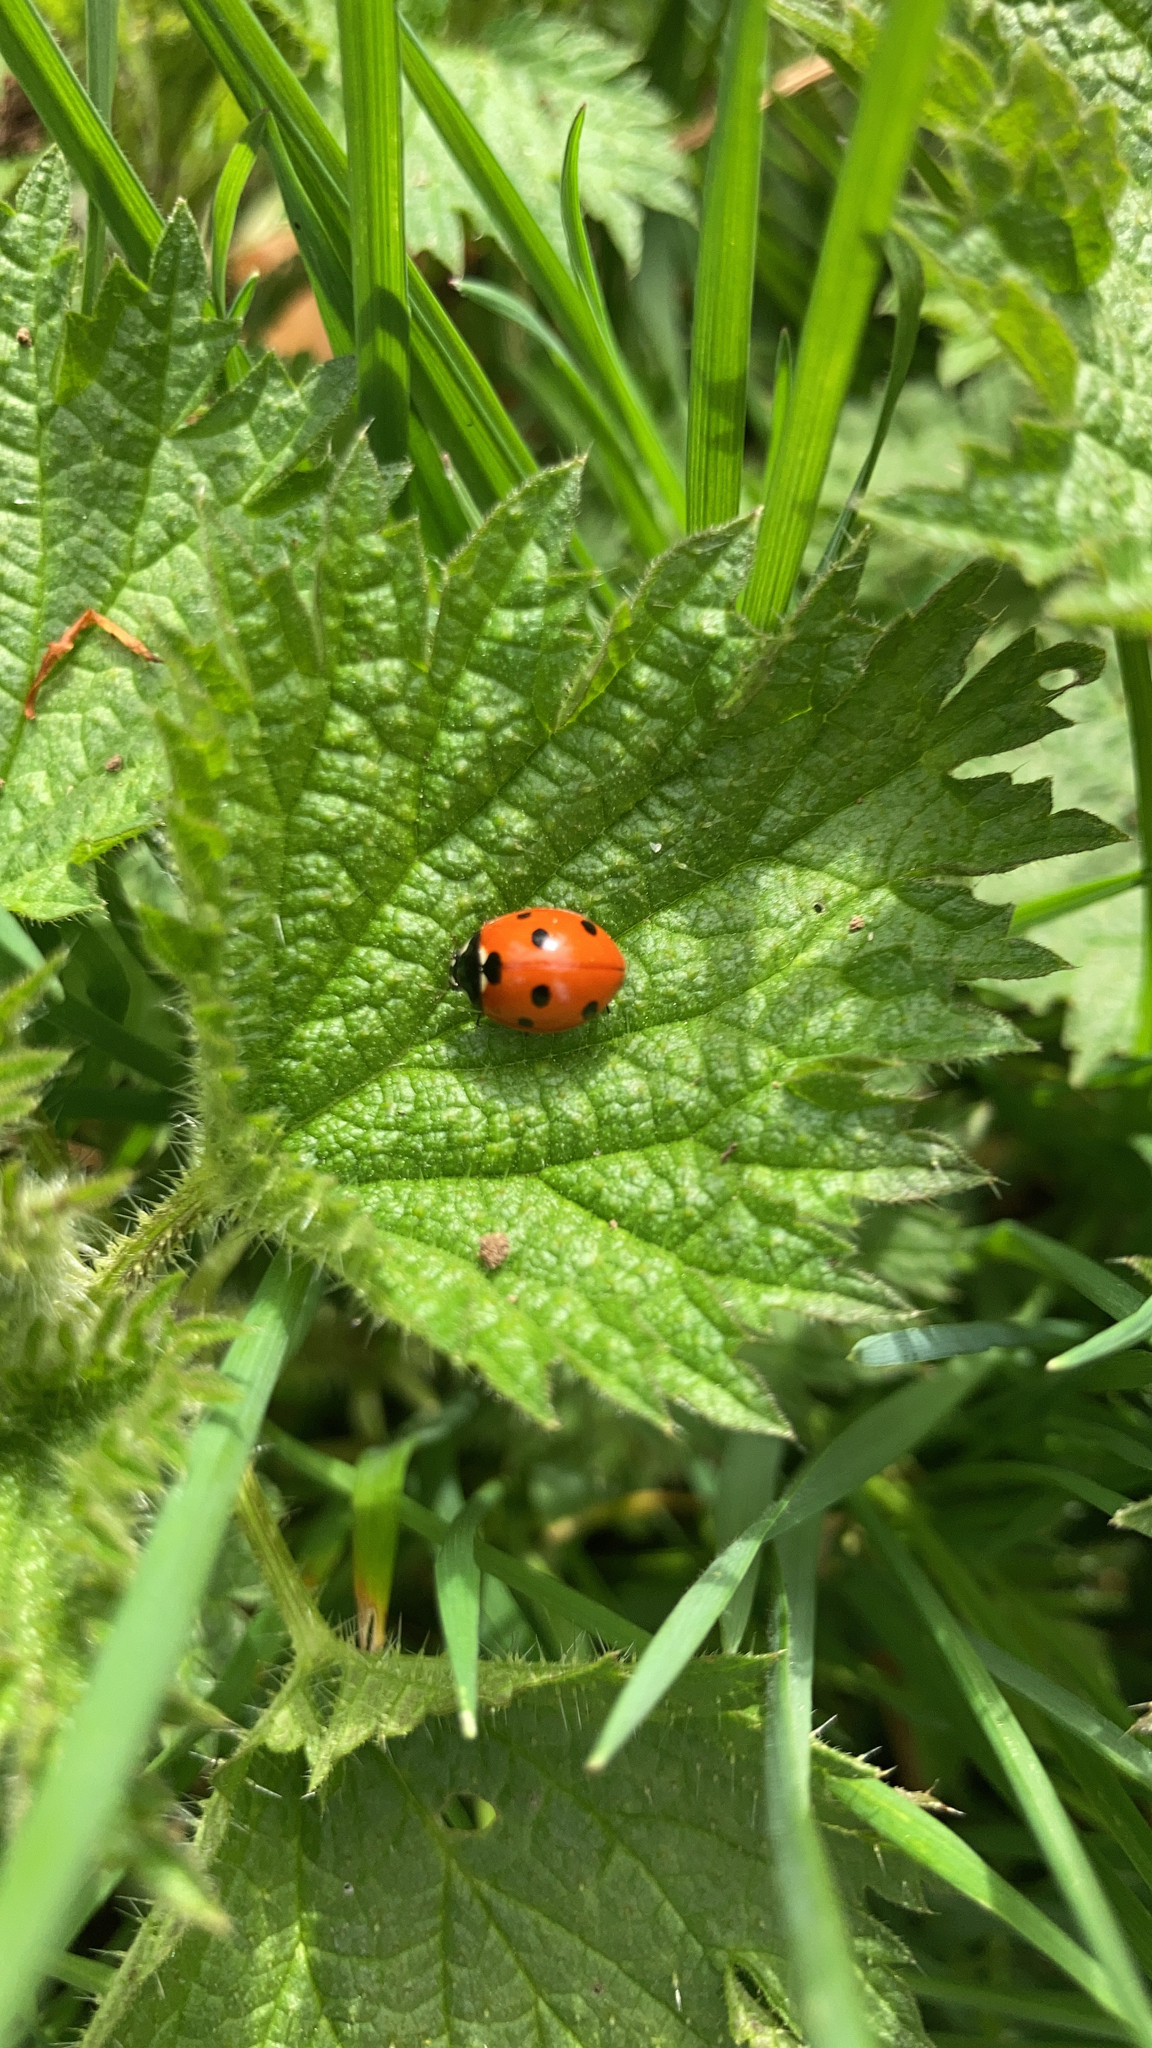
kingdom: Animalia
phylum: Arthropoda
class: Insecta
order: Coleoptera
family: Coccinellidae
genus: Coccinella
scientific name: Coccinella septempunctata
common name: Sevenspotted lady beetle
